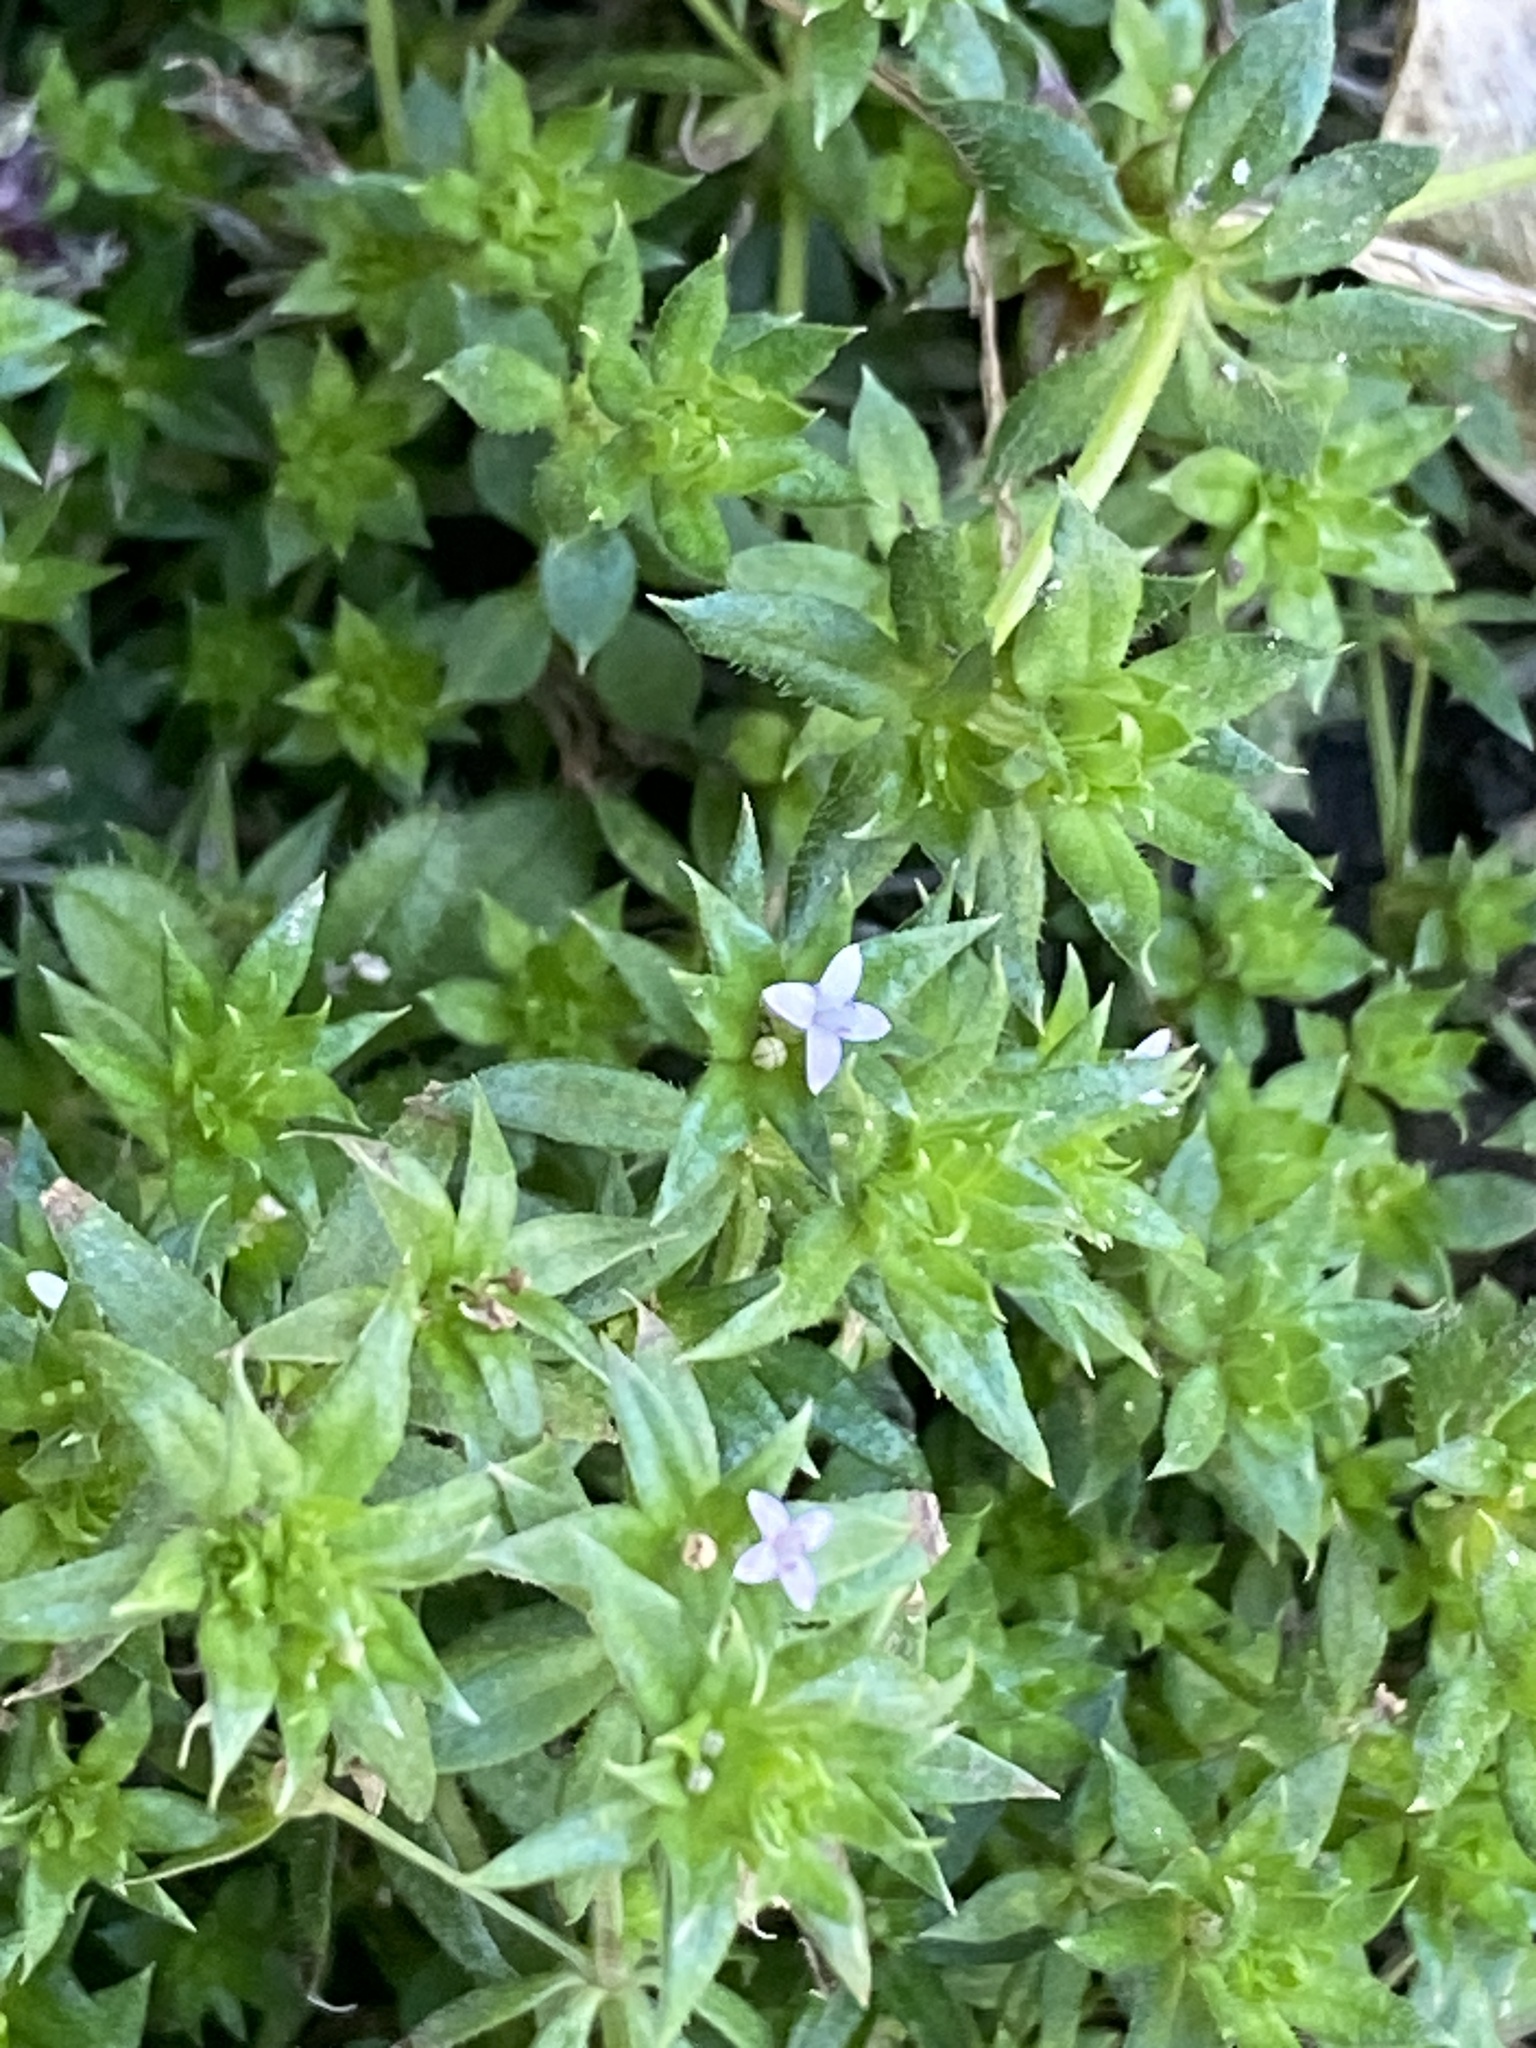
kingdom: Plantae
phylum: Tracheophyta
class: Magnoliopsida
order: Gentianales
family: Rubiaceae
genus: Sherardia
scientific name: Sherardia arvensis
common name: Field madder
